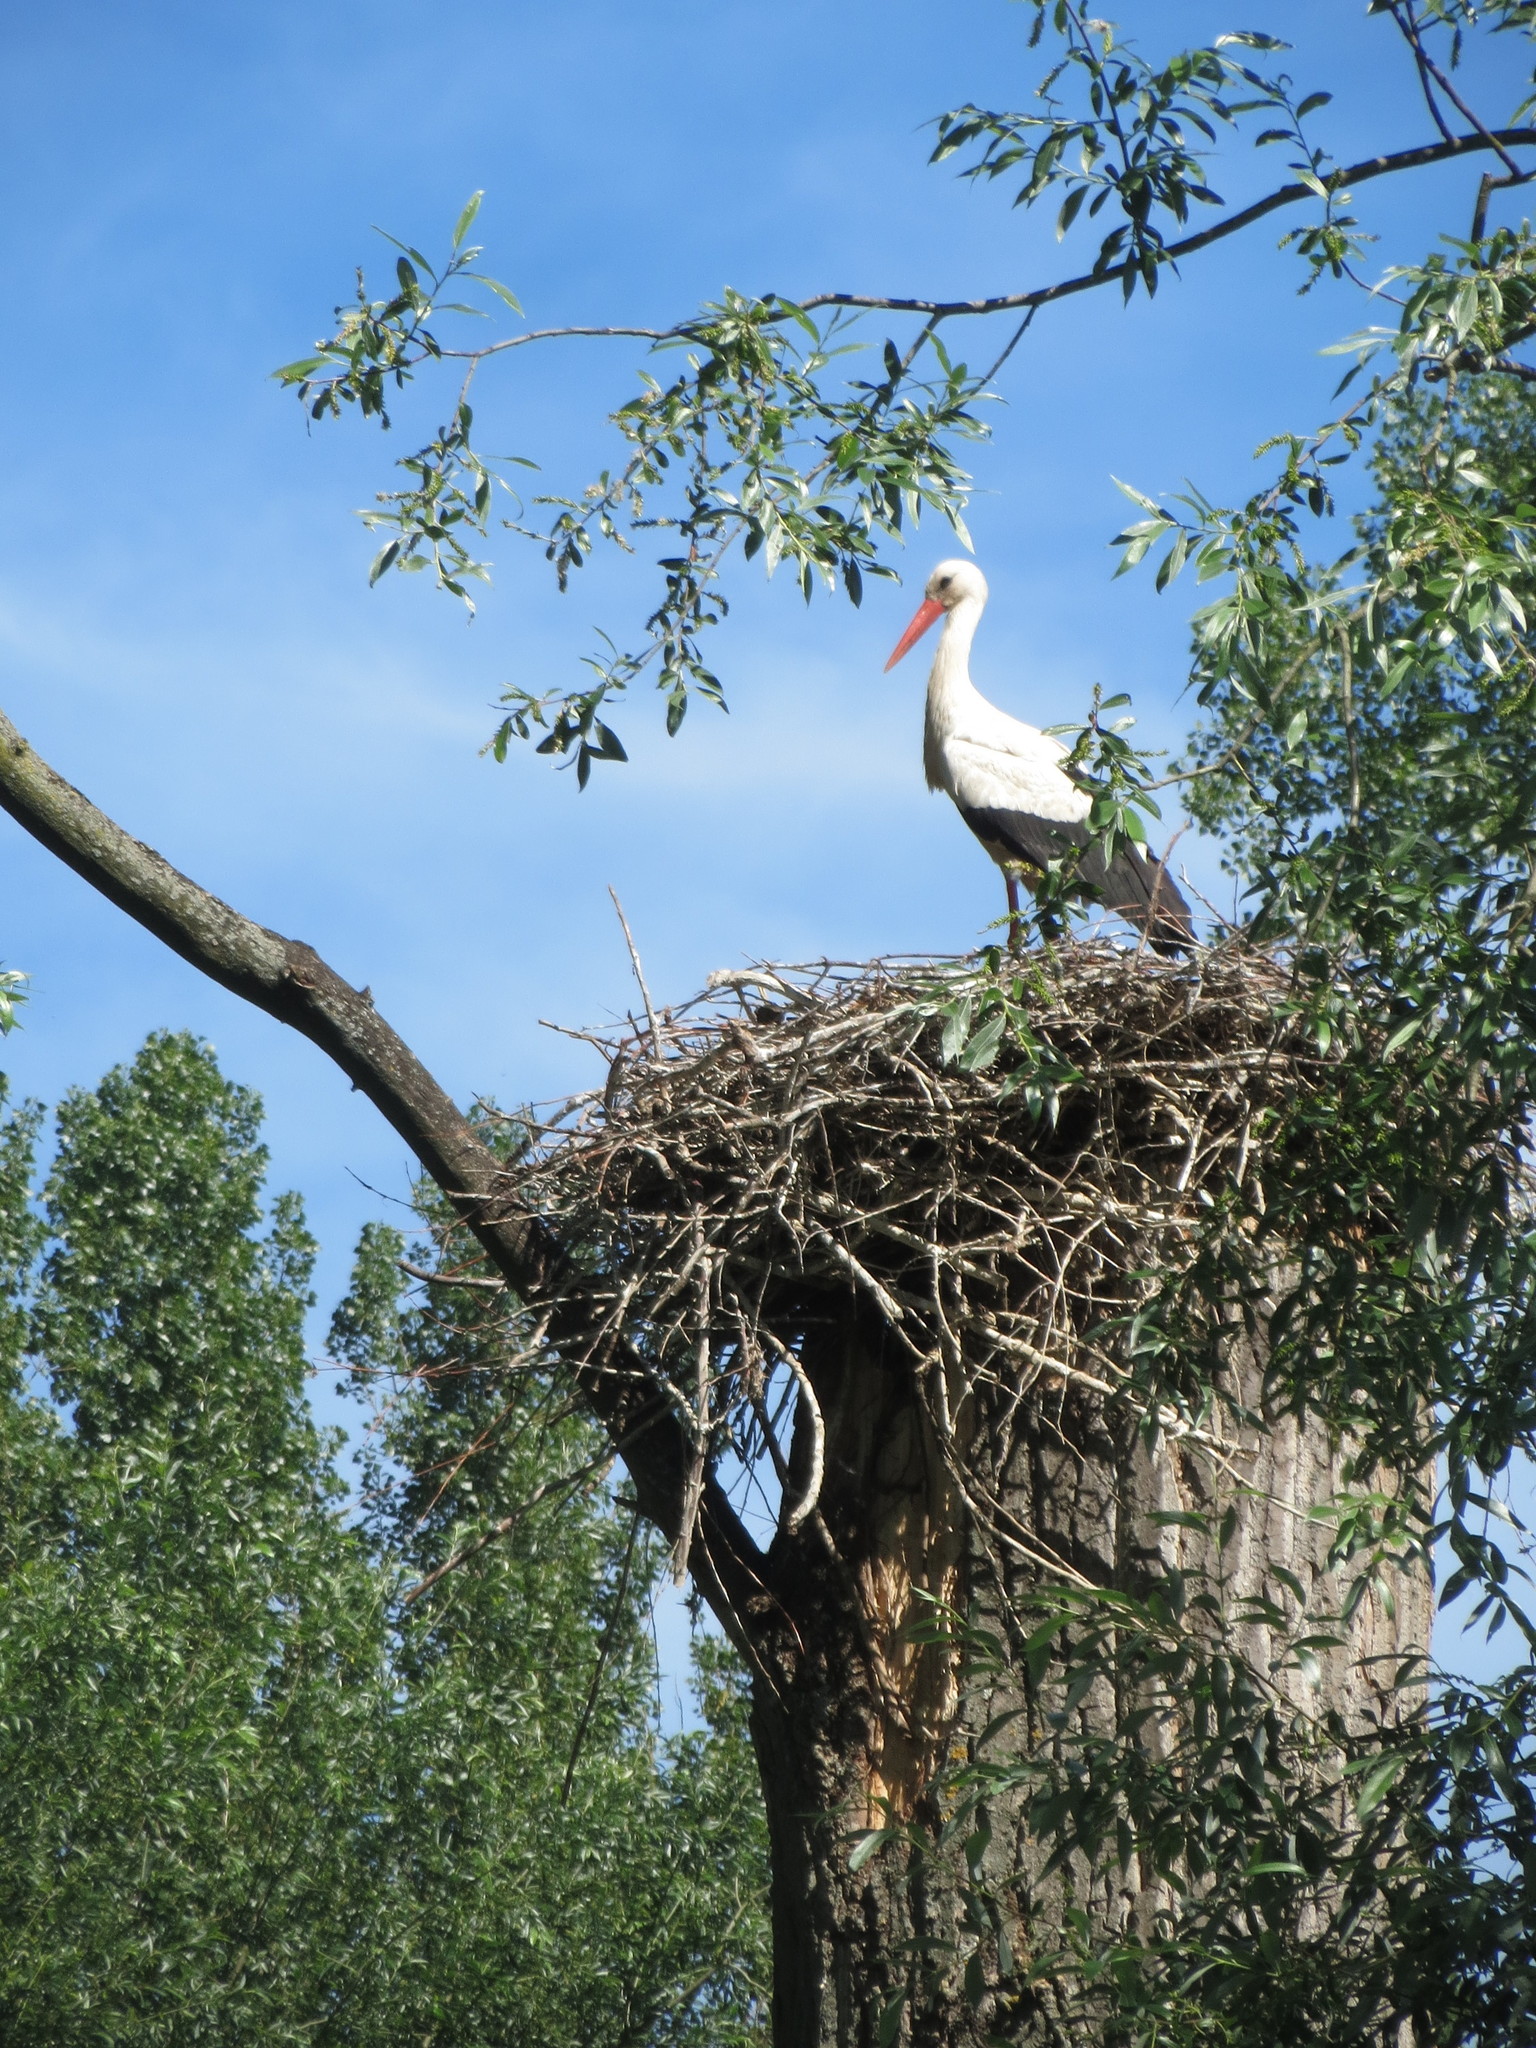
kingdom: Animalia
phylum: Chordata
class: Aves
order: Ciconiiformes
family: Ciconiidae
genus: Ciconia
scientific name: Ciconia ciconia
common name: White stork
